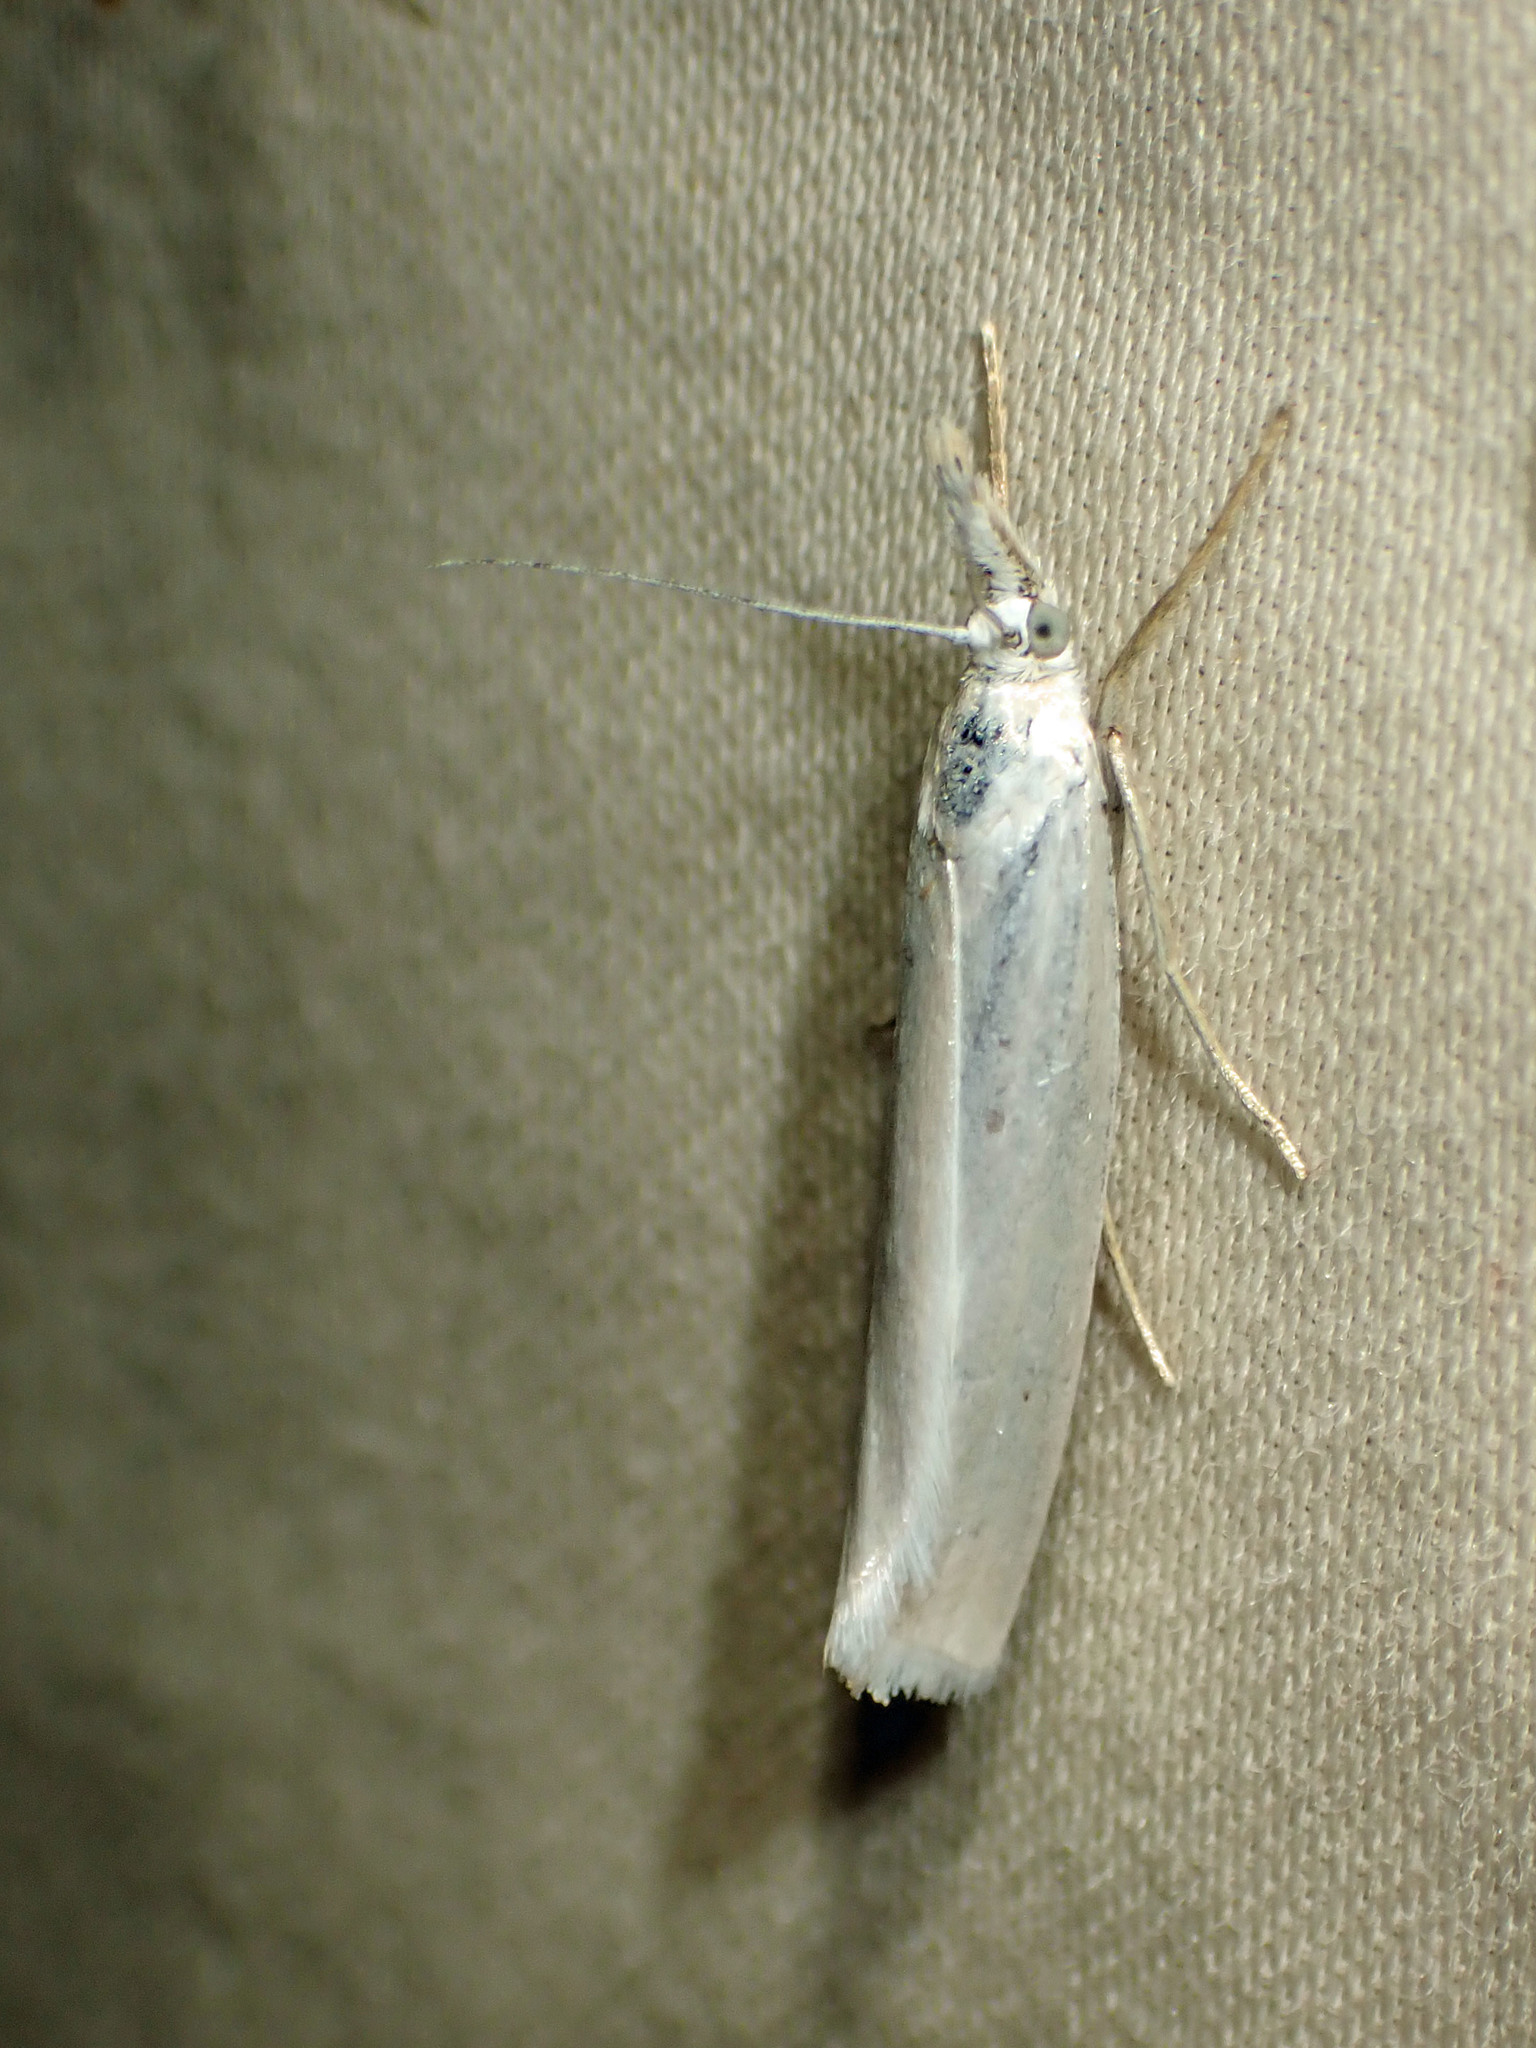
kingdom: Animalia
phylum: Arthropoda
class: Insecta
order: Lepidoptera
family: Crambidae
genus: Crambus
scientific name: Crambus perlellus
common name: Yellow satin veneer
